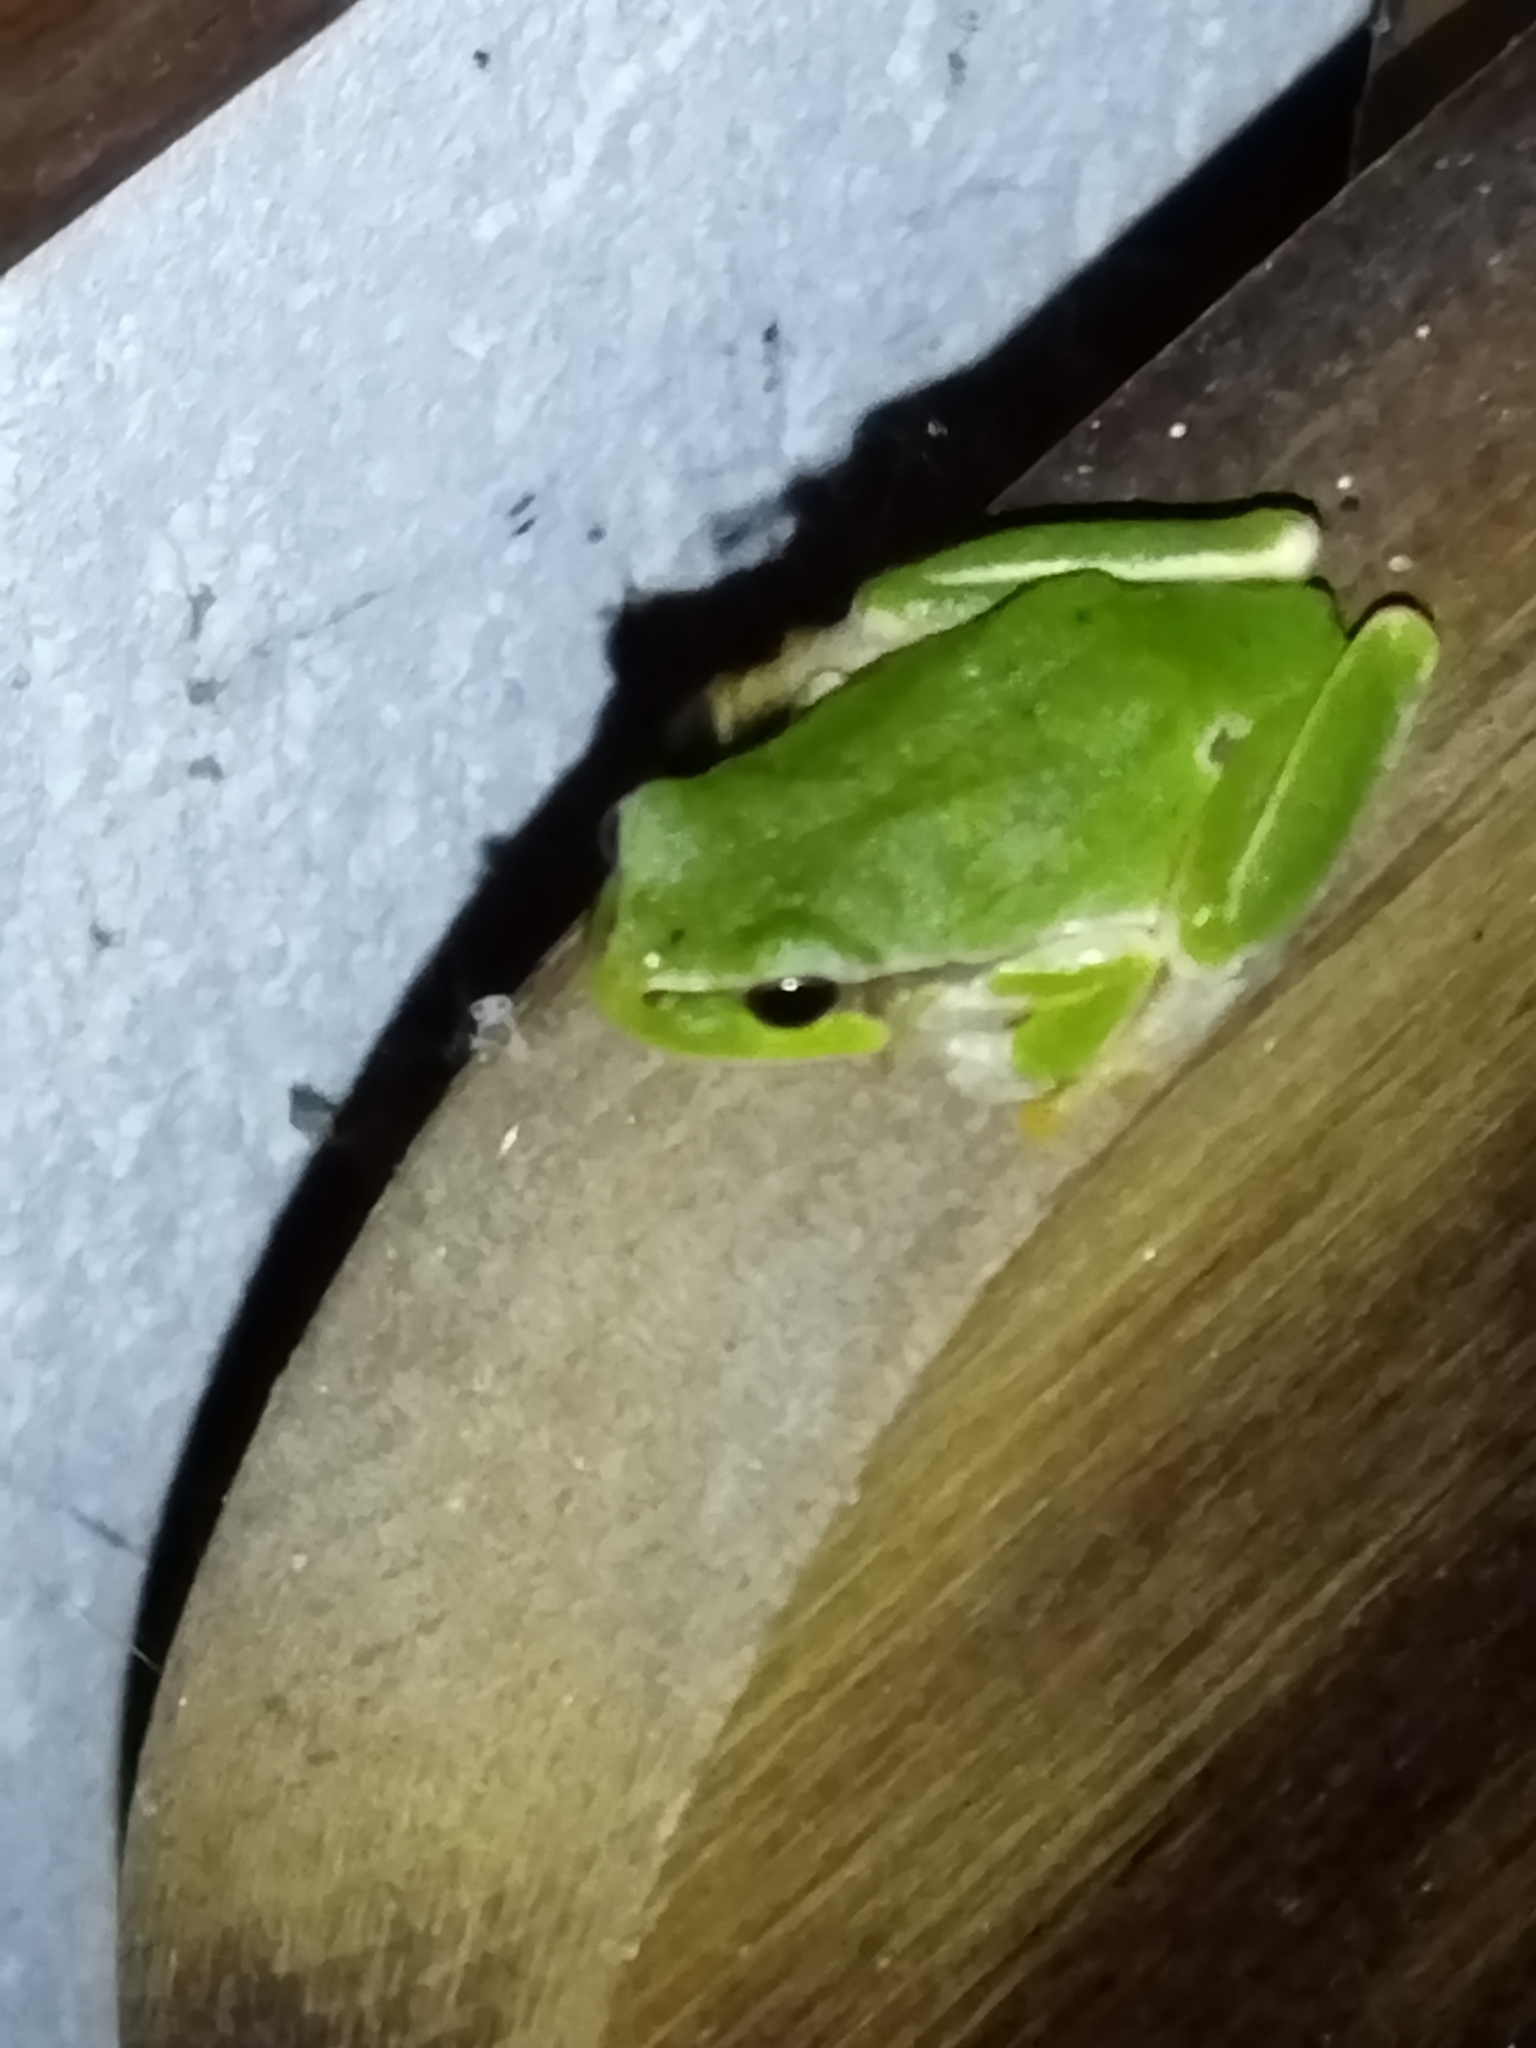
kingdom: Animalia
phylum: Chordata
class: Amphibia
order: Anura
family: Hylidae
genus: Hyla
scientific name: Hyla orientalis
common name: Caucasian treefrog
